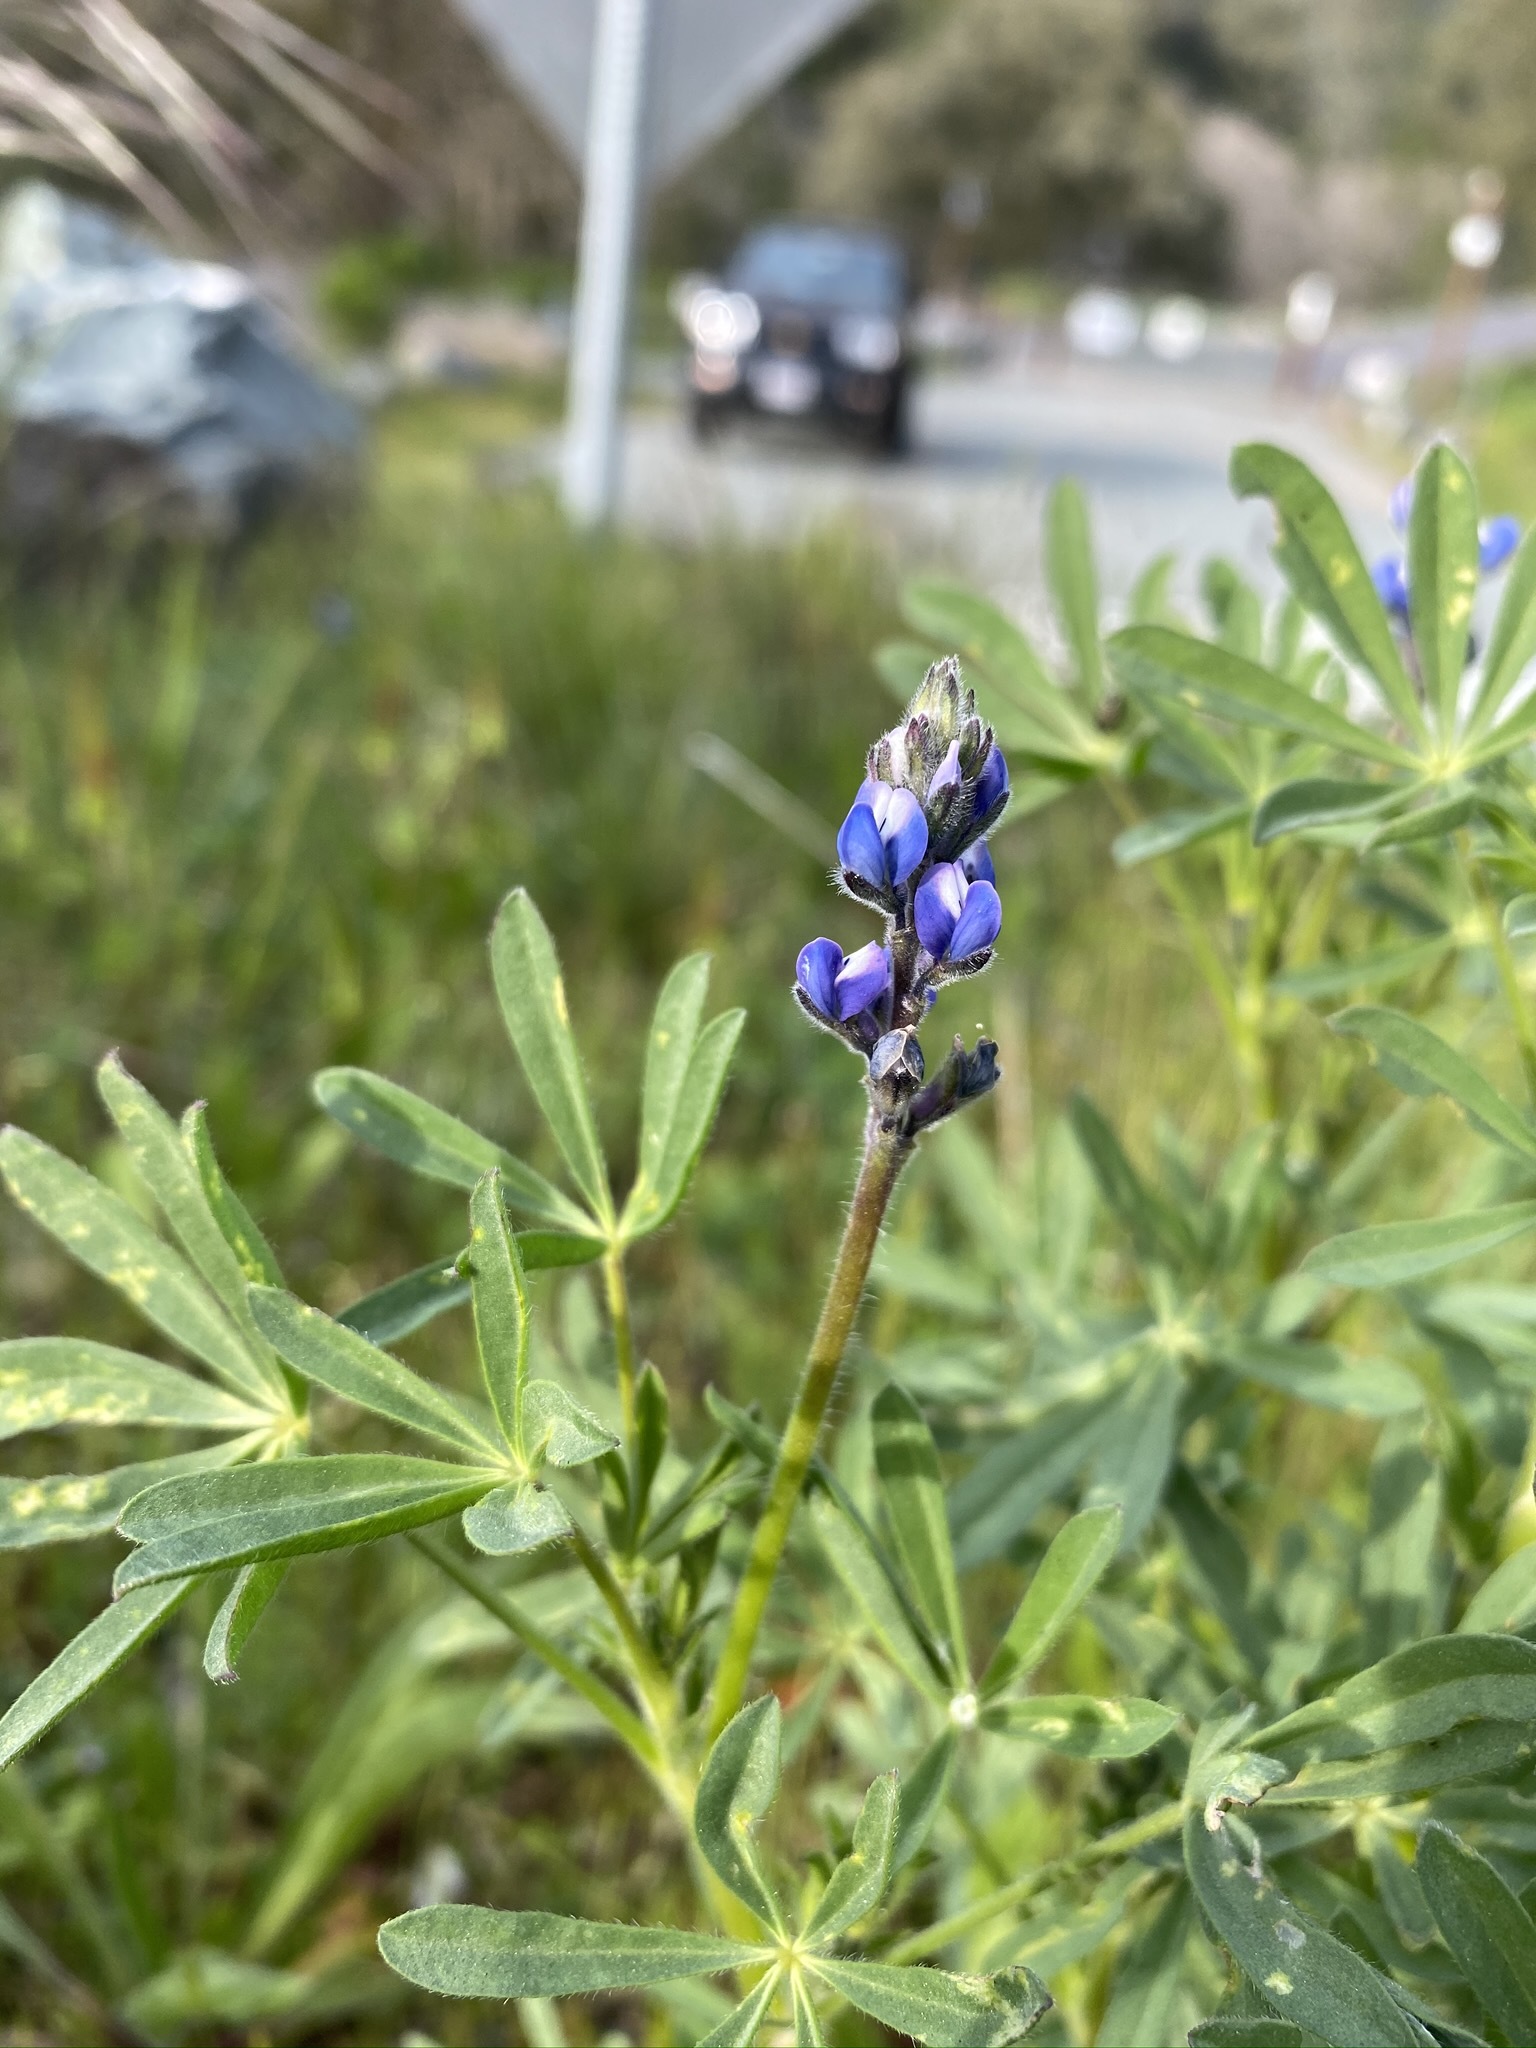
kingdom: Plantae
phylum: Tracheophyta
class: Magnoliopsida
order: Fabales
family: Fabaceae
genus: Lupinus
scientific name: Lupinus bicolor
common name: Miniature lupine
